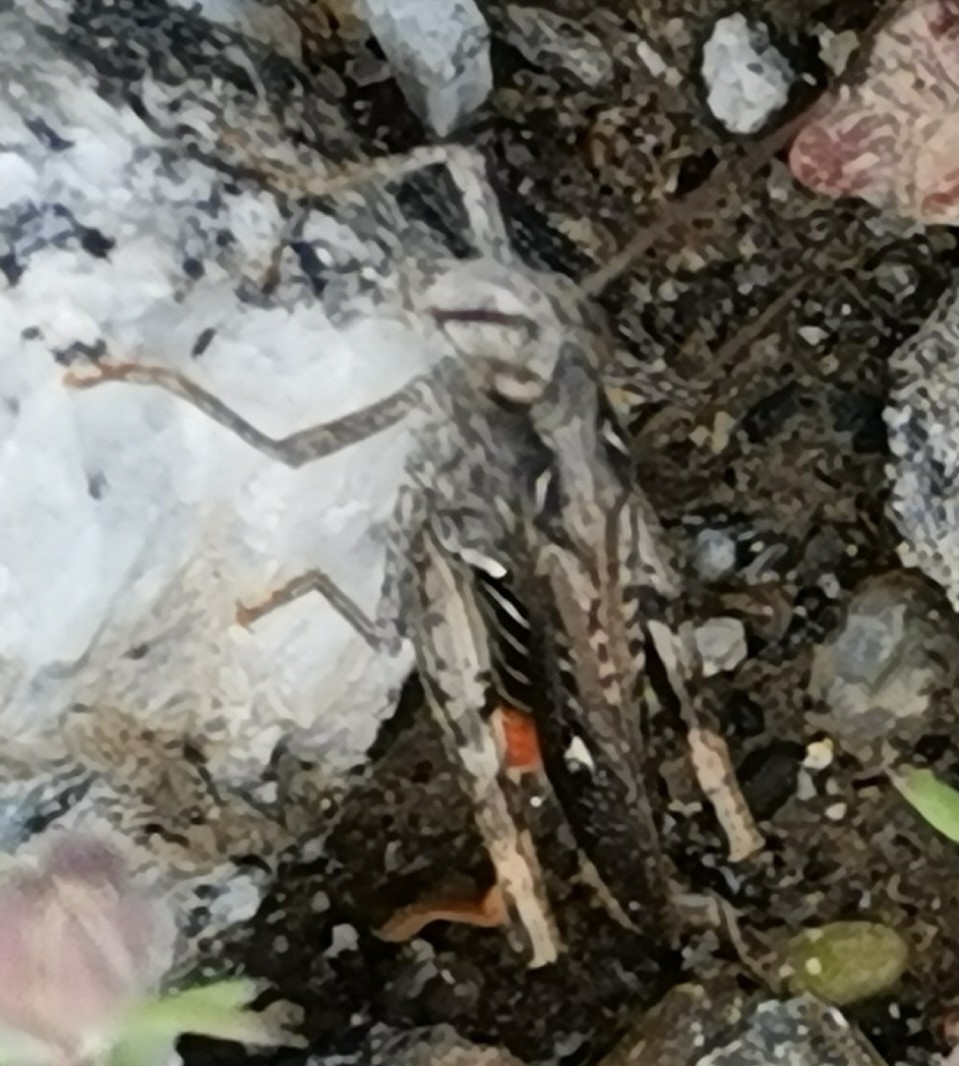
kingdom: Animalia
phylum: Arthropoda
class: Insecta
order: Orthoptera
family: Acrididae
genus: Chorthippus
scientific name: Chorthippus brunneus
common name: Field grasshopper
